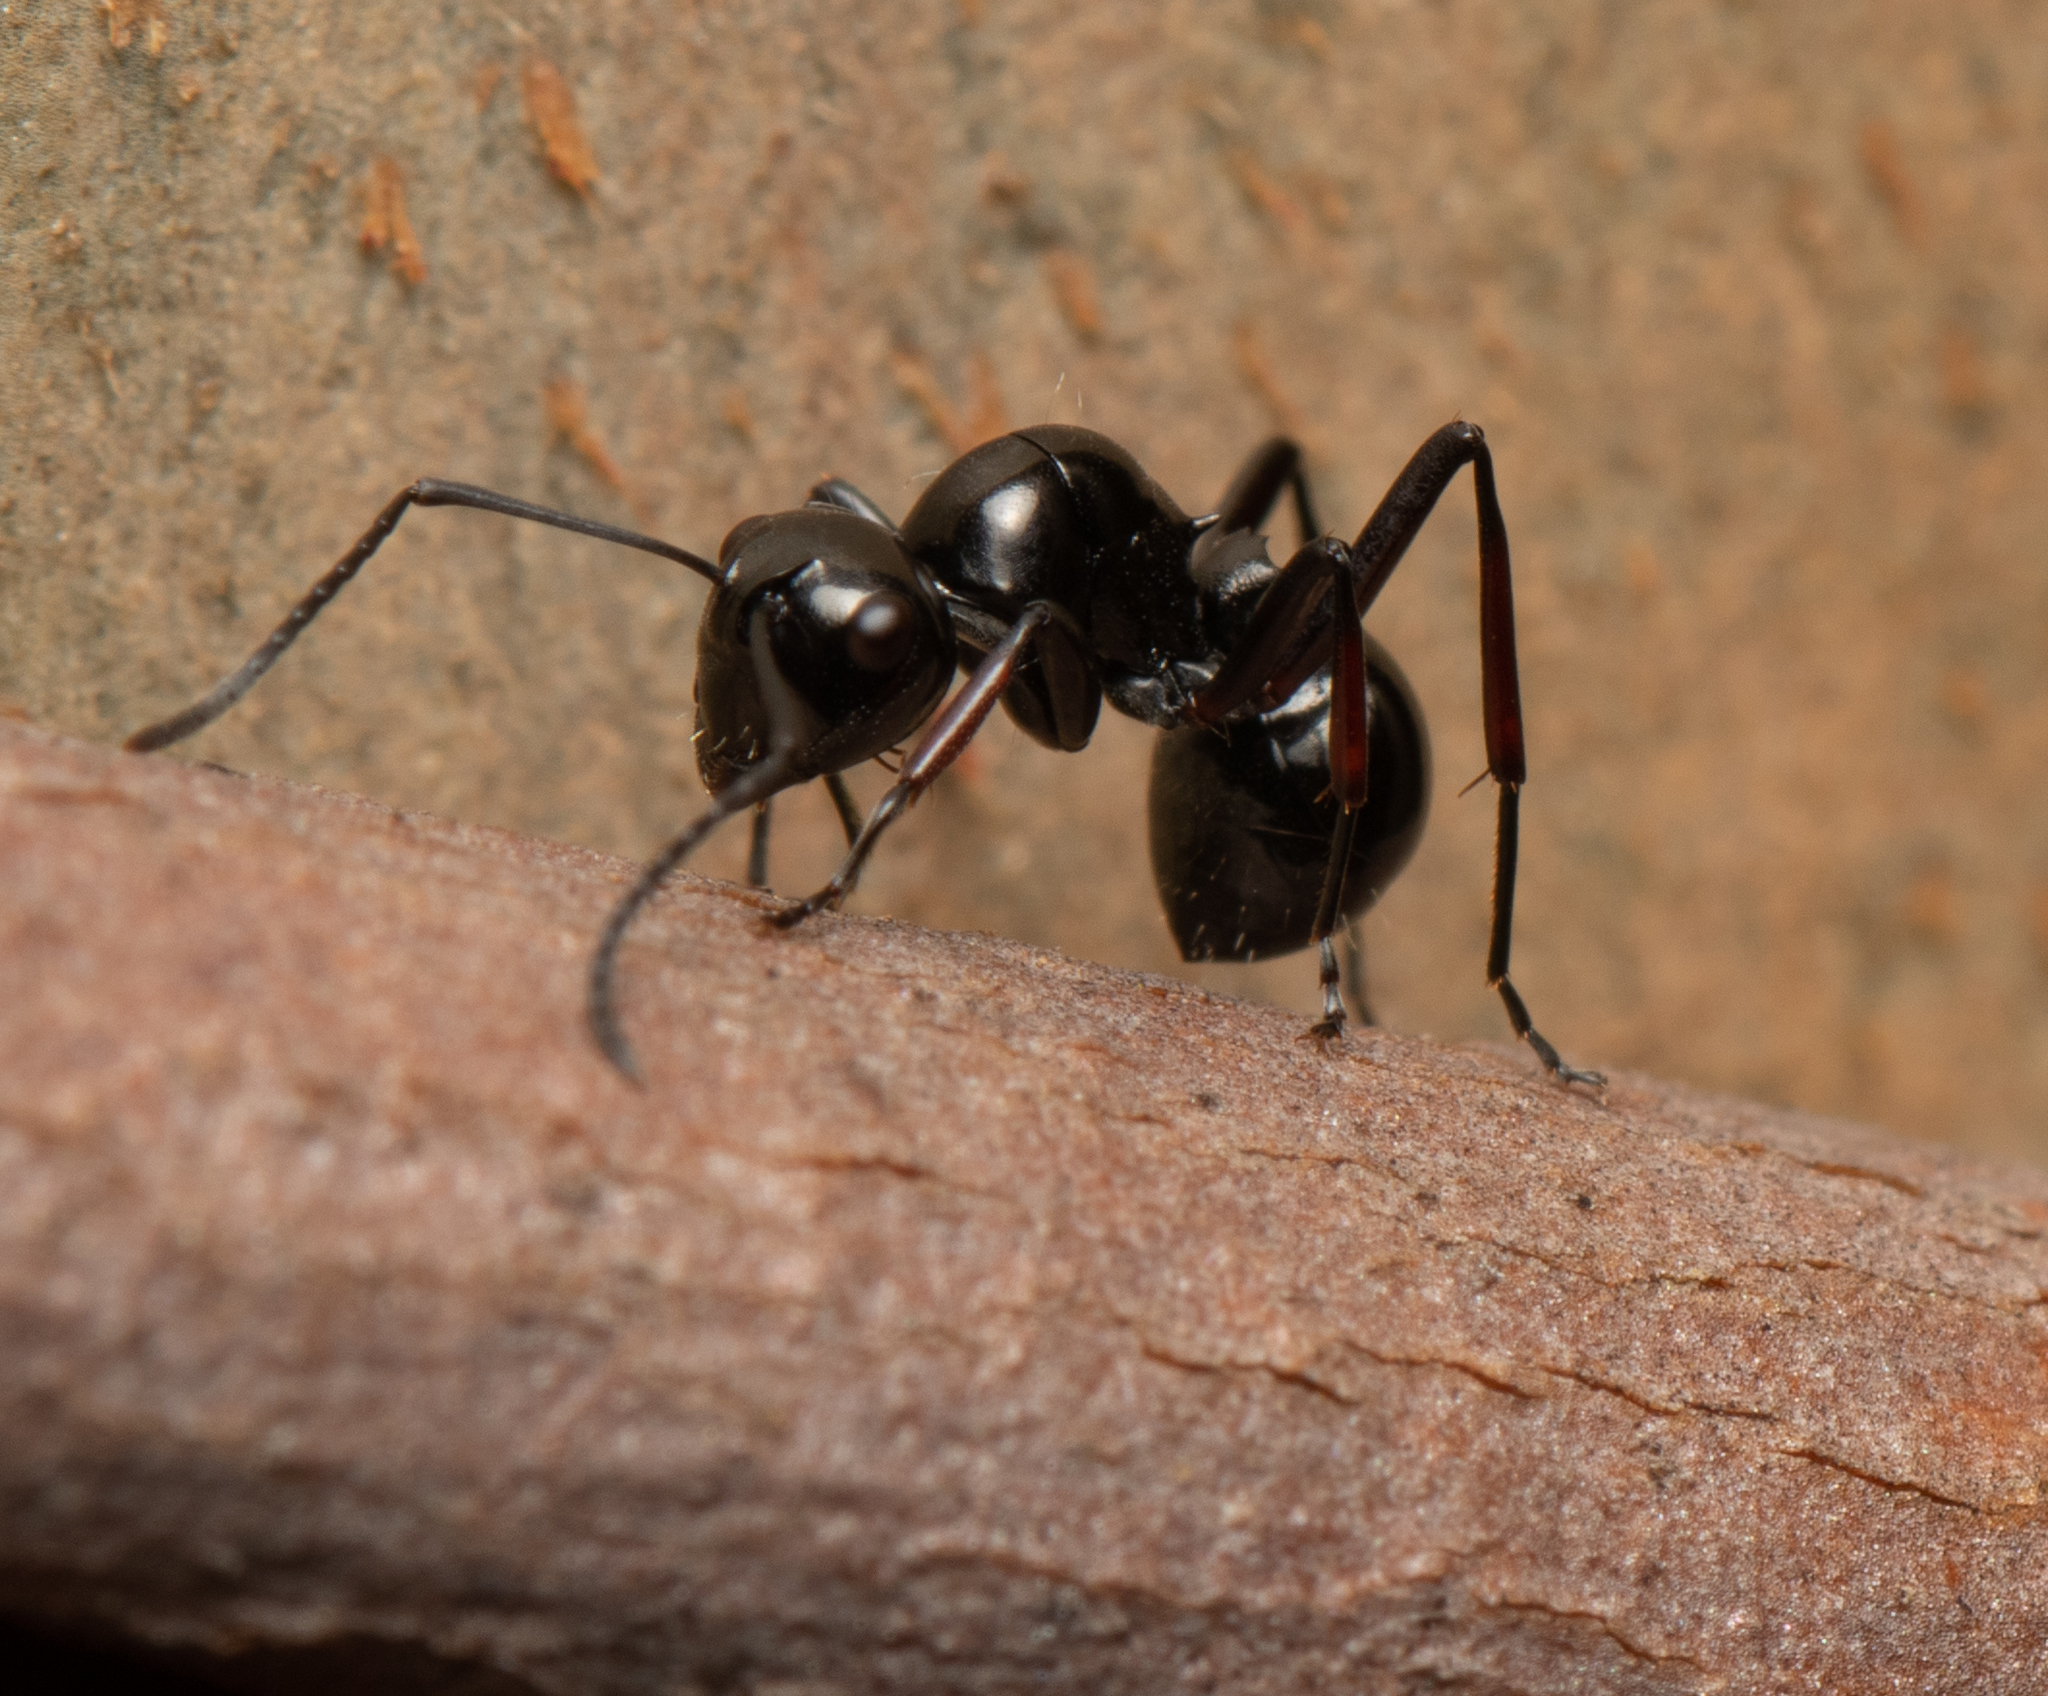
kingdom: Animalia
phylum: Arthropoda
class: Insecta
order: Hymenoptera
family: Formicidae
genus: Polyrhachis
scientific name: Polyrhachis australis
